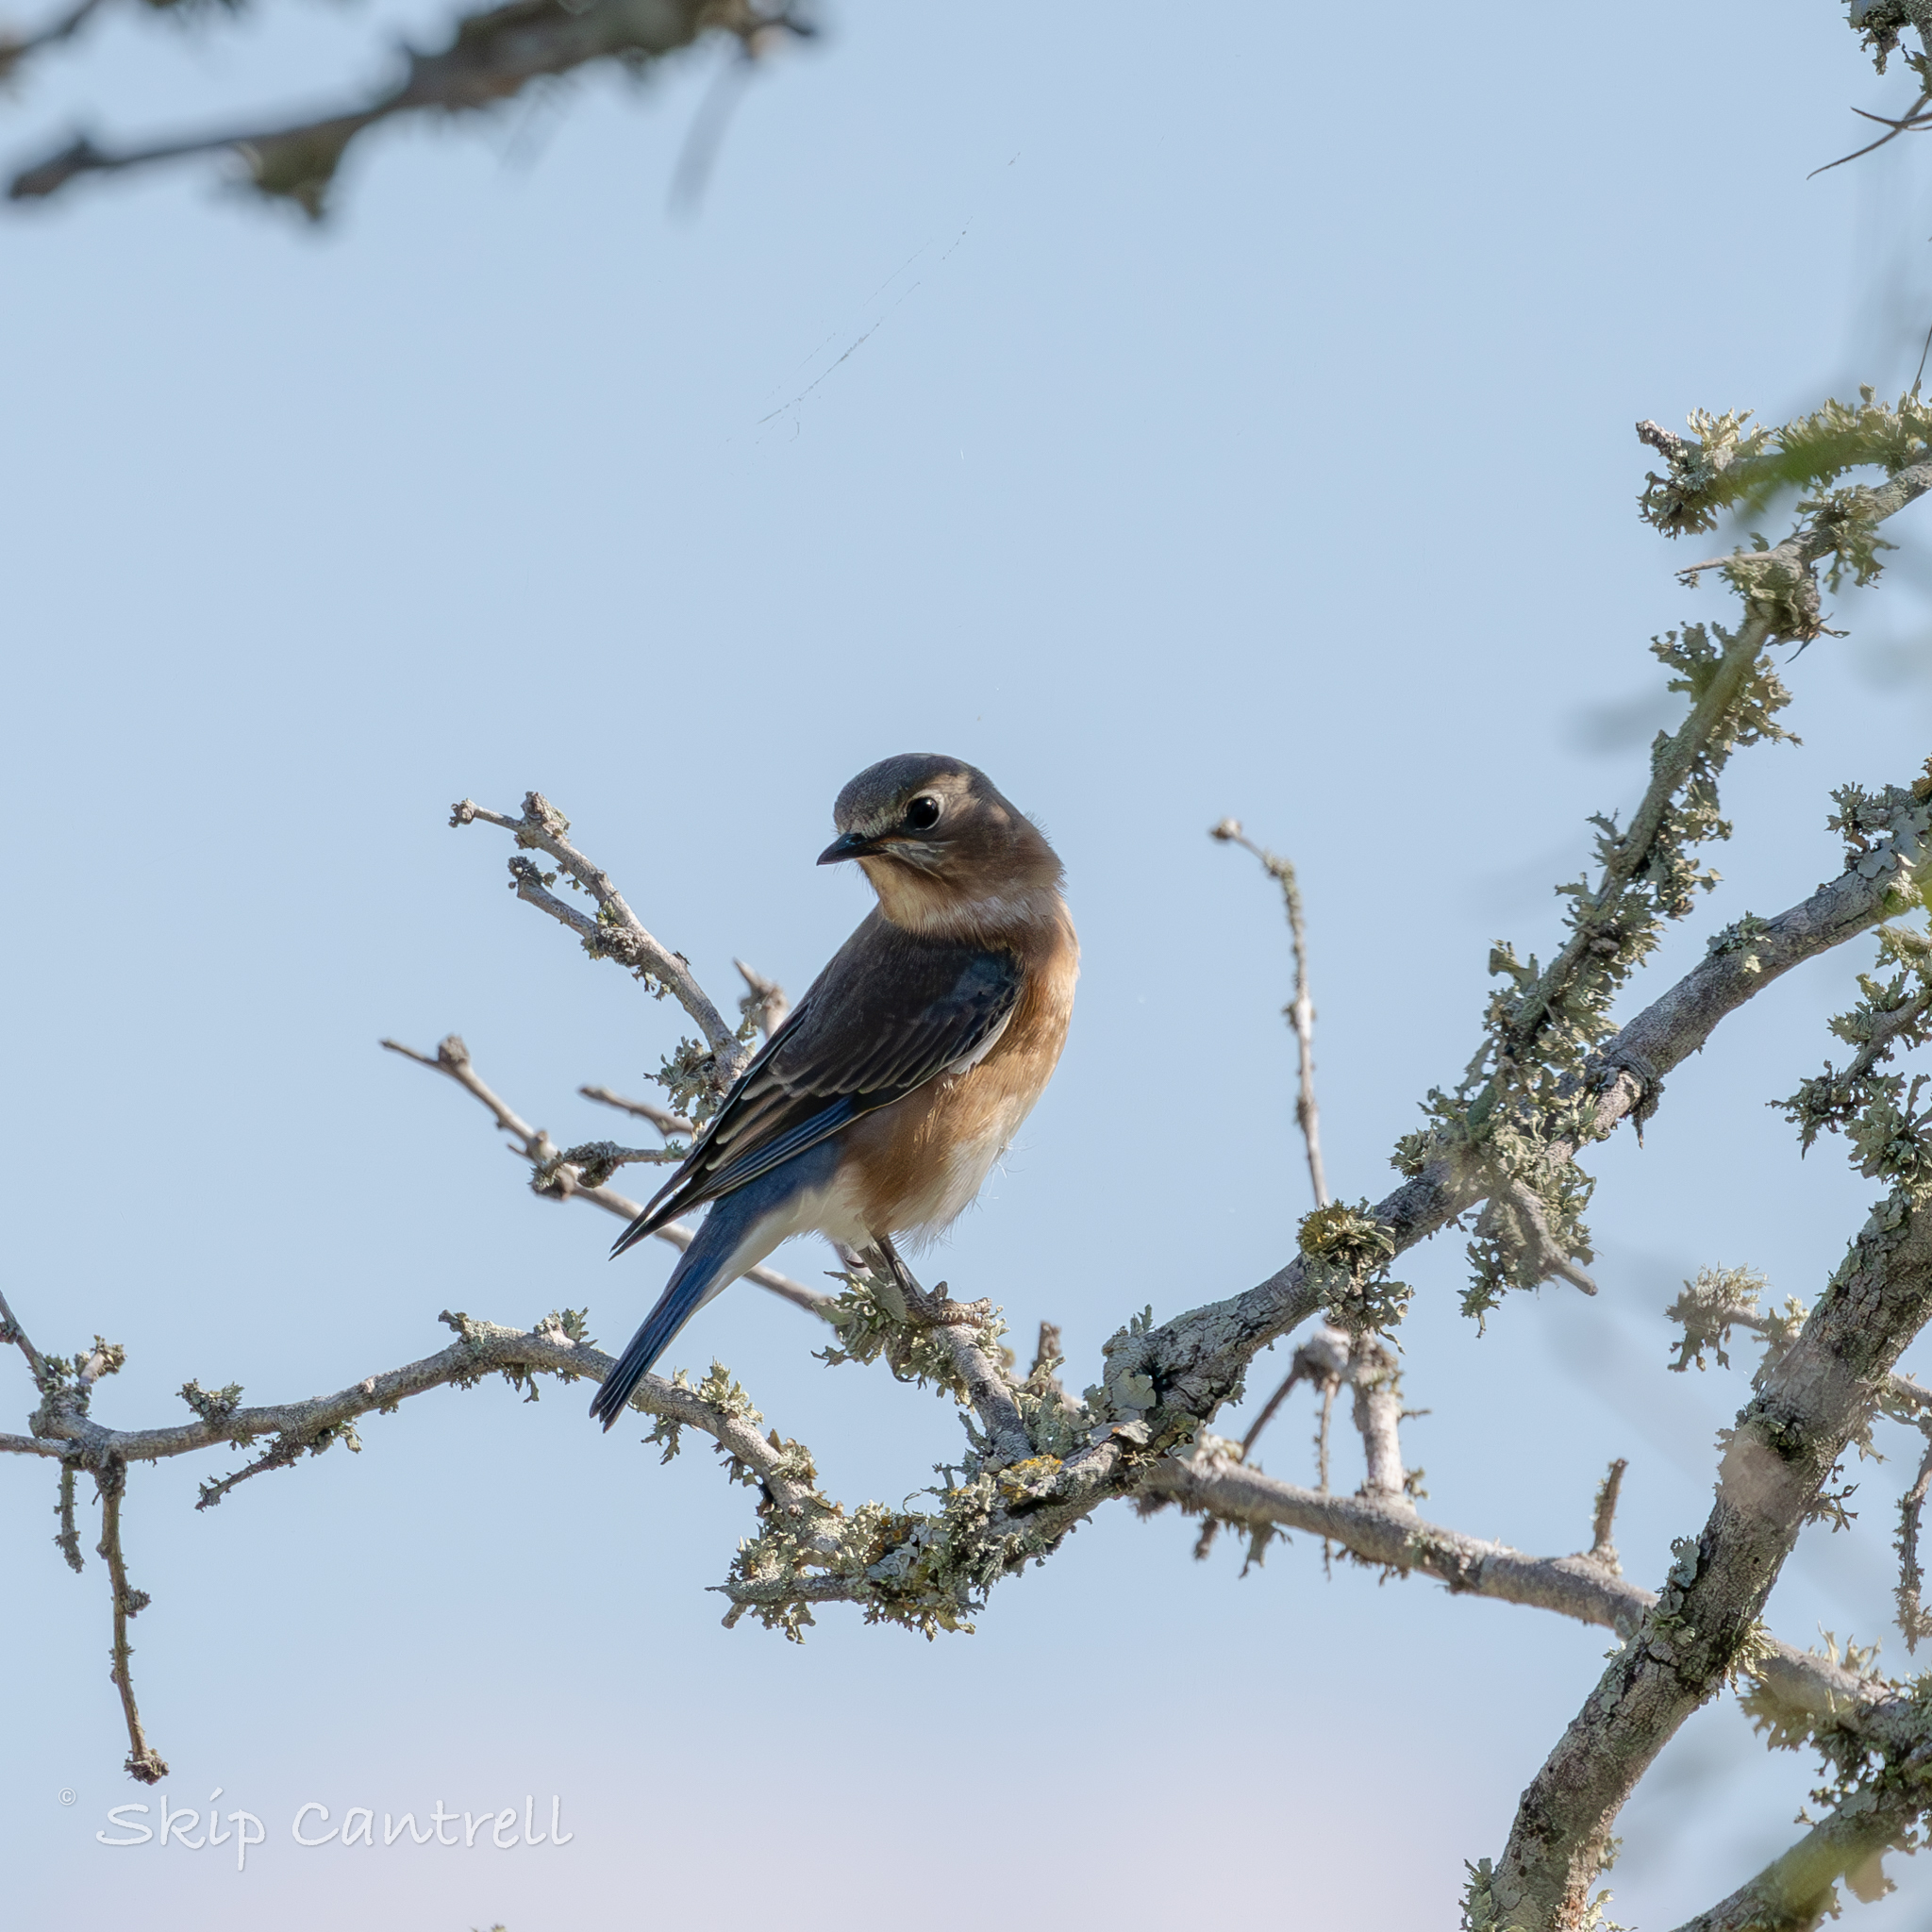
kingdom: Animalia
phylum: Chordata
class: Aves
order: Passeriformes
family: Turdidae
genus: Sialia
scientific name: Sialia sialis
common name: Eastern bluebird
